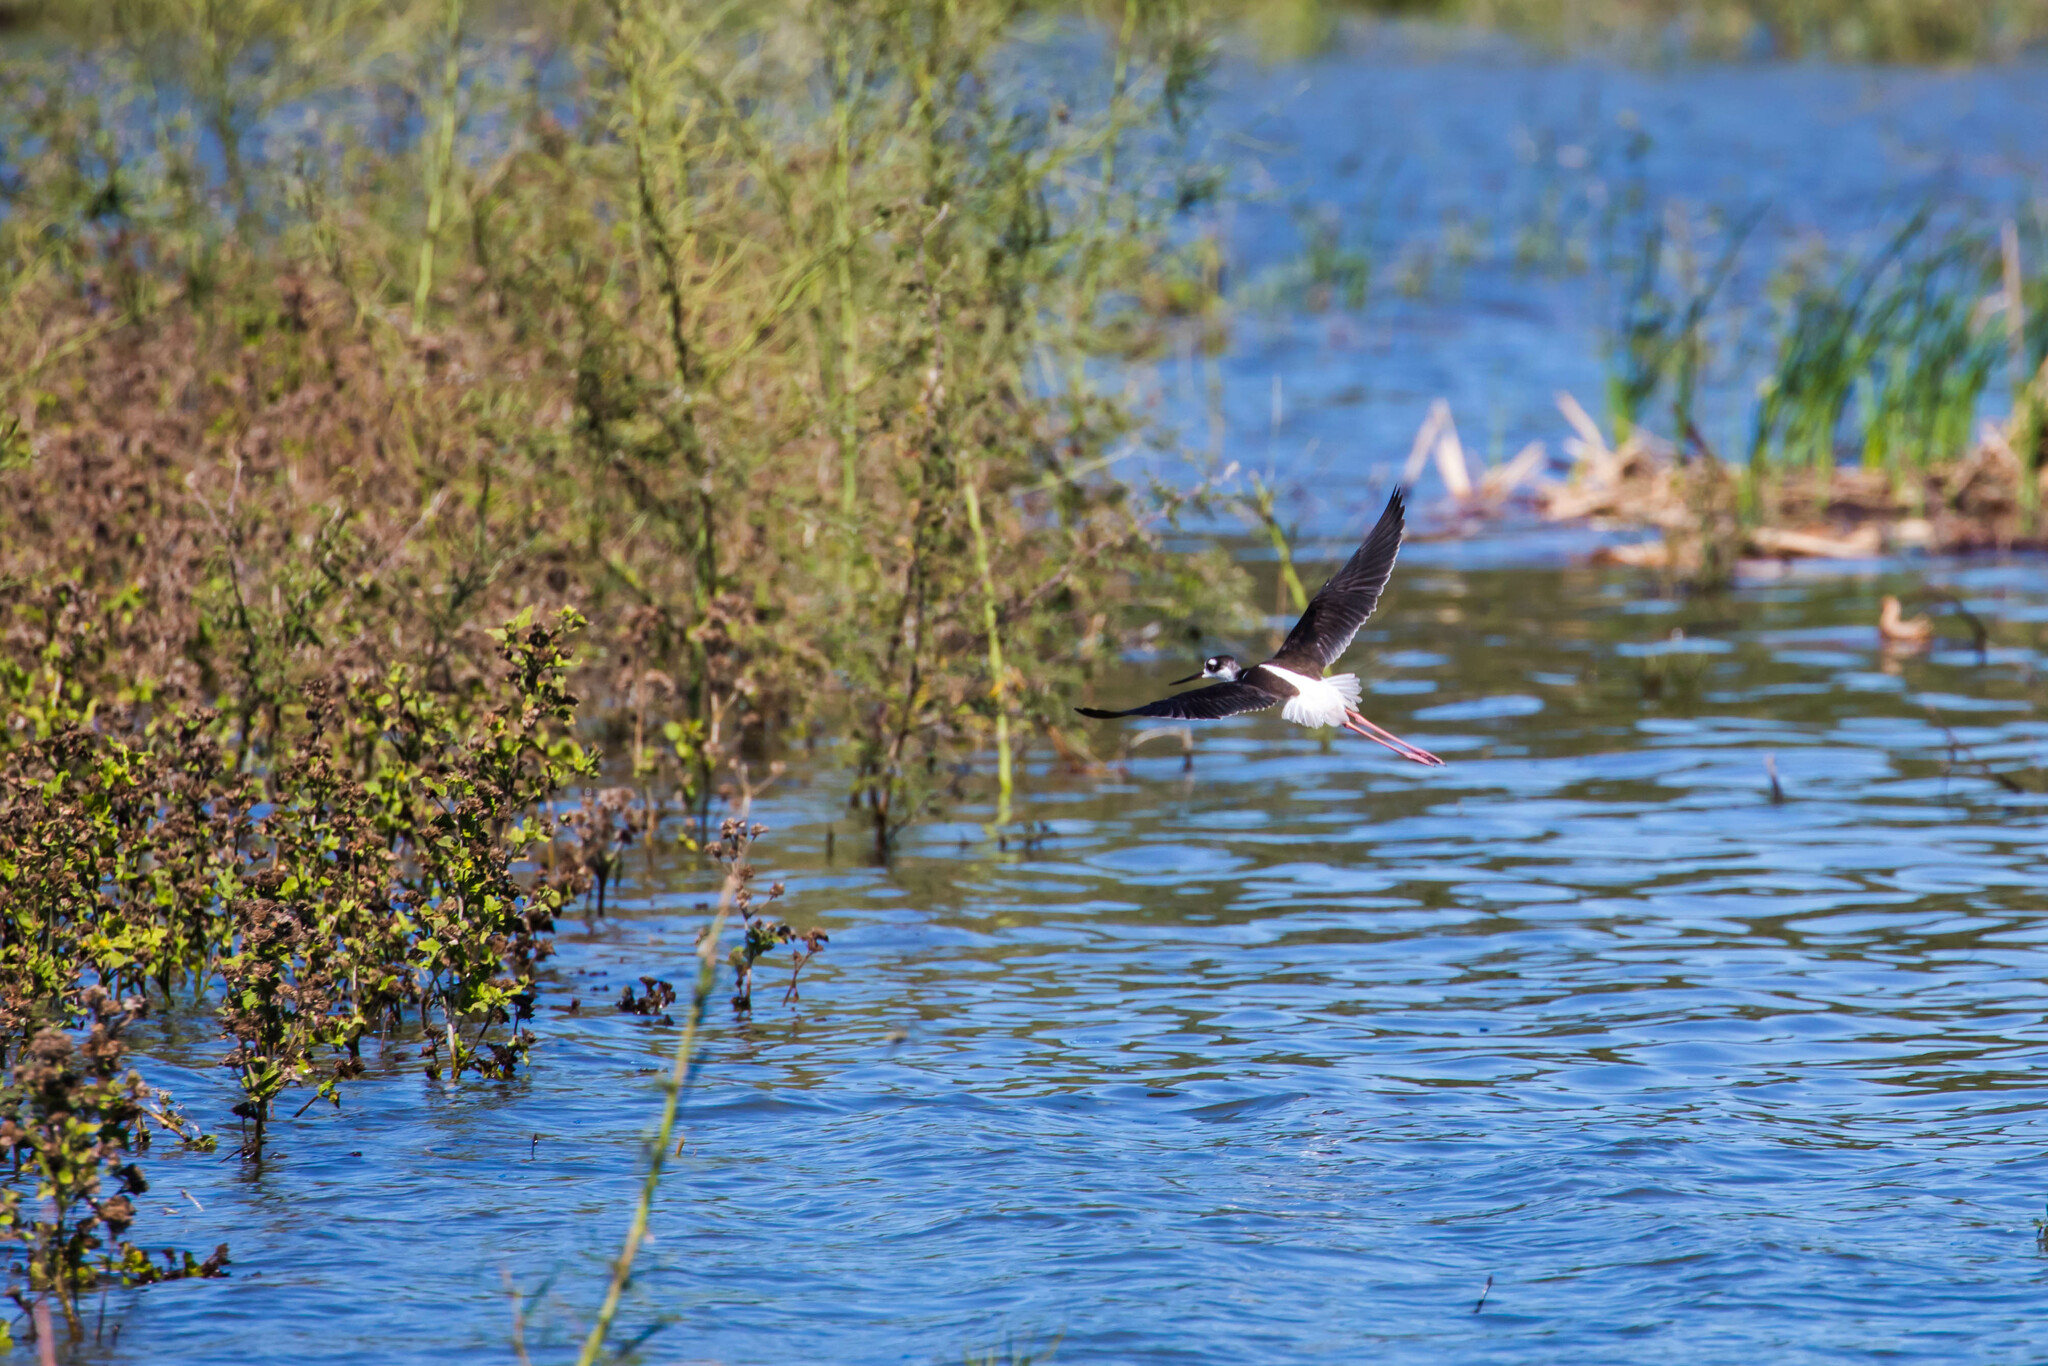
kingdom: Animalia
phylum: Chordata
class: Aves
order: Charadriiformes
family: Recurvirostridae
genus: Himantopus
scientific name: Himantopus mexicanus
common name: Black-necked stilt
